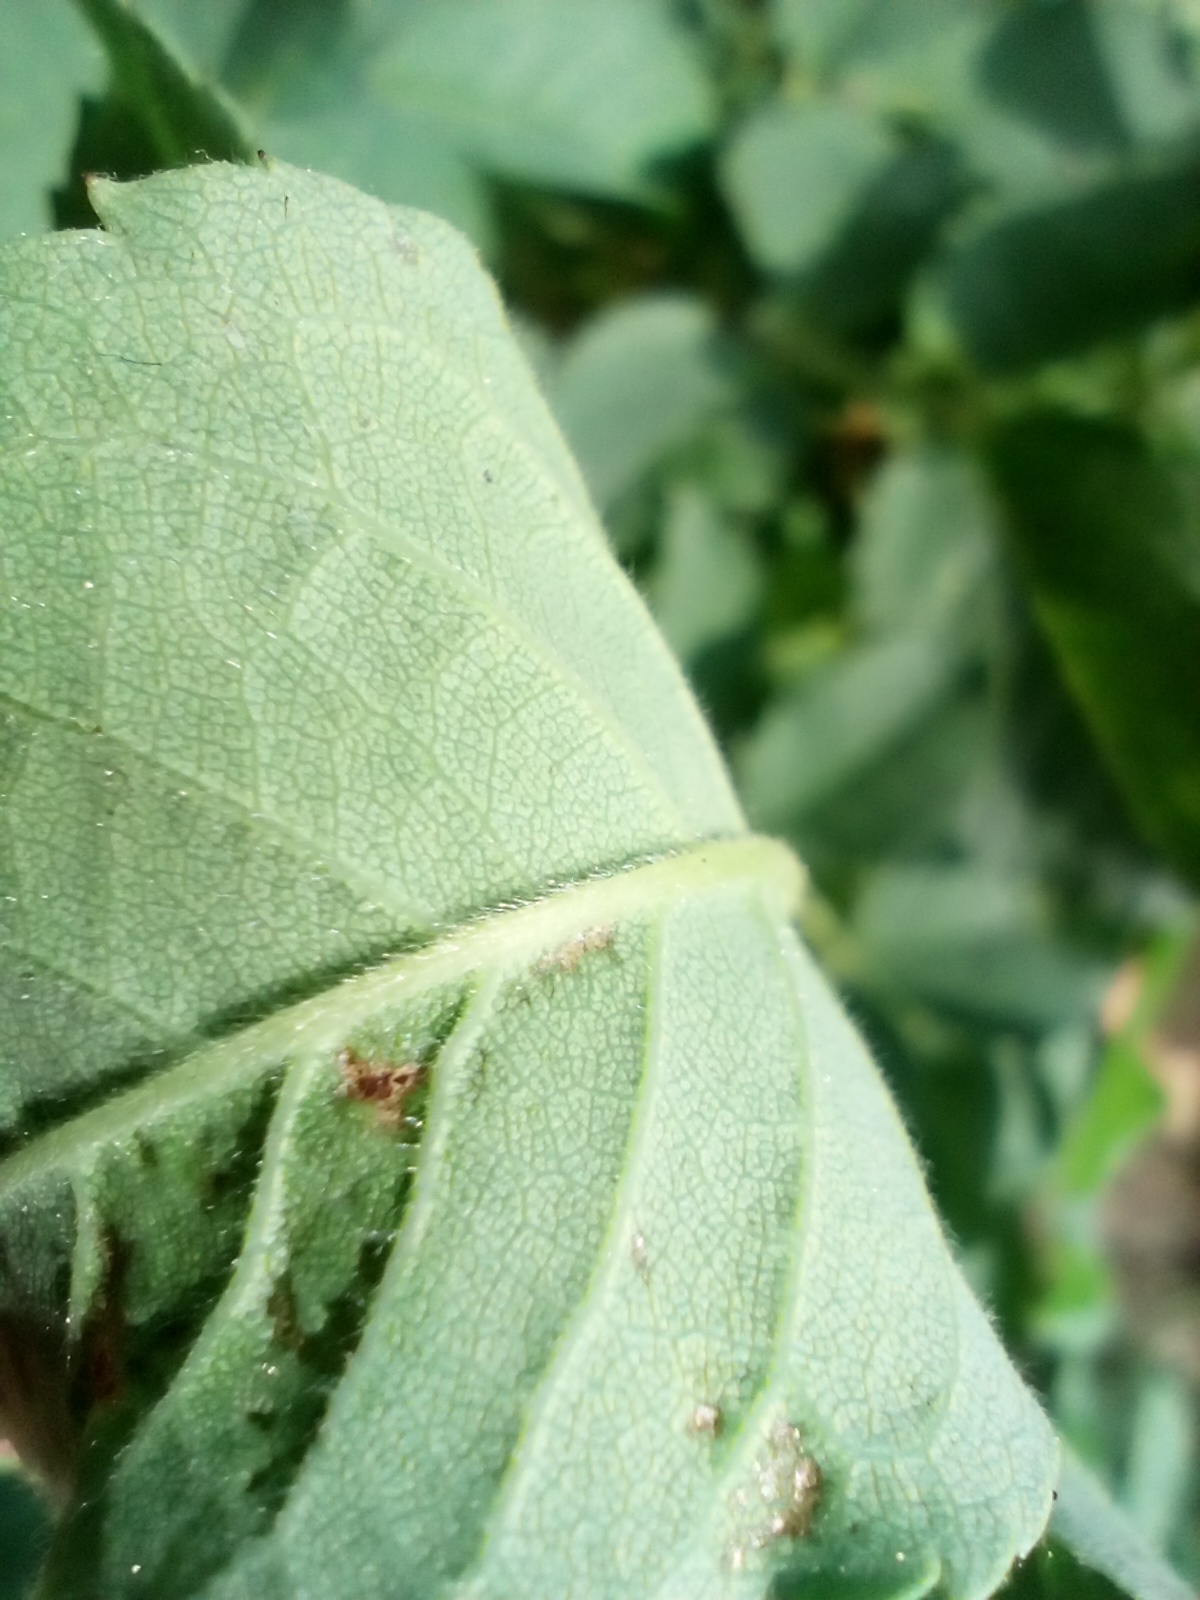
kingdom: Plantae
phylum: Tracheophyta
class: Magnoliopsida
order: Rosales
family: Rosaceae
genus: Rosa
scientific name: Rosa subcollina
